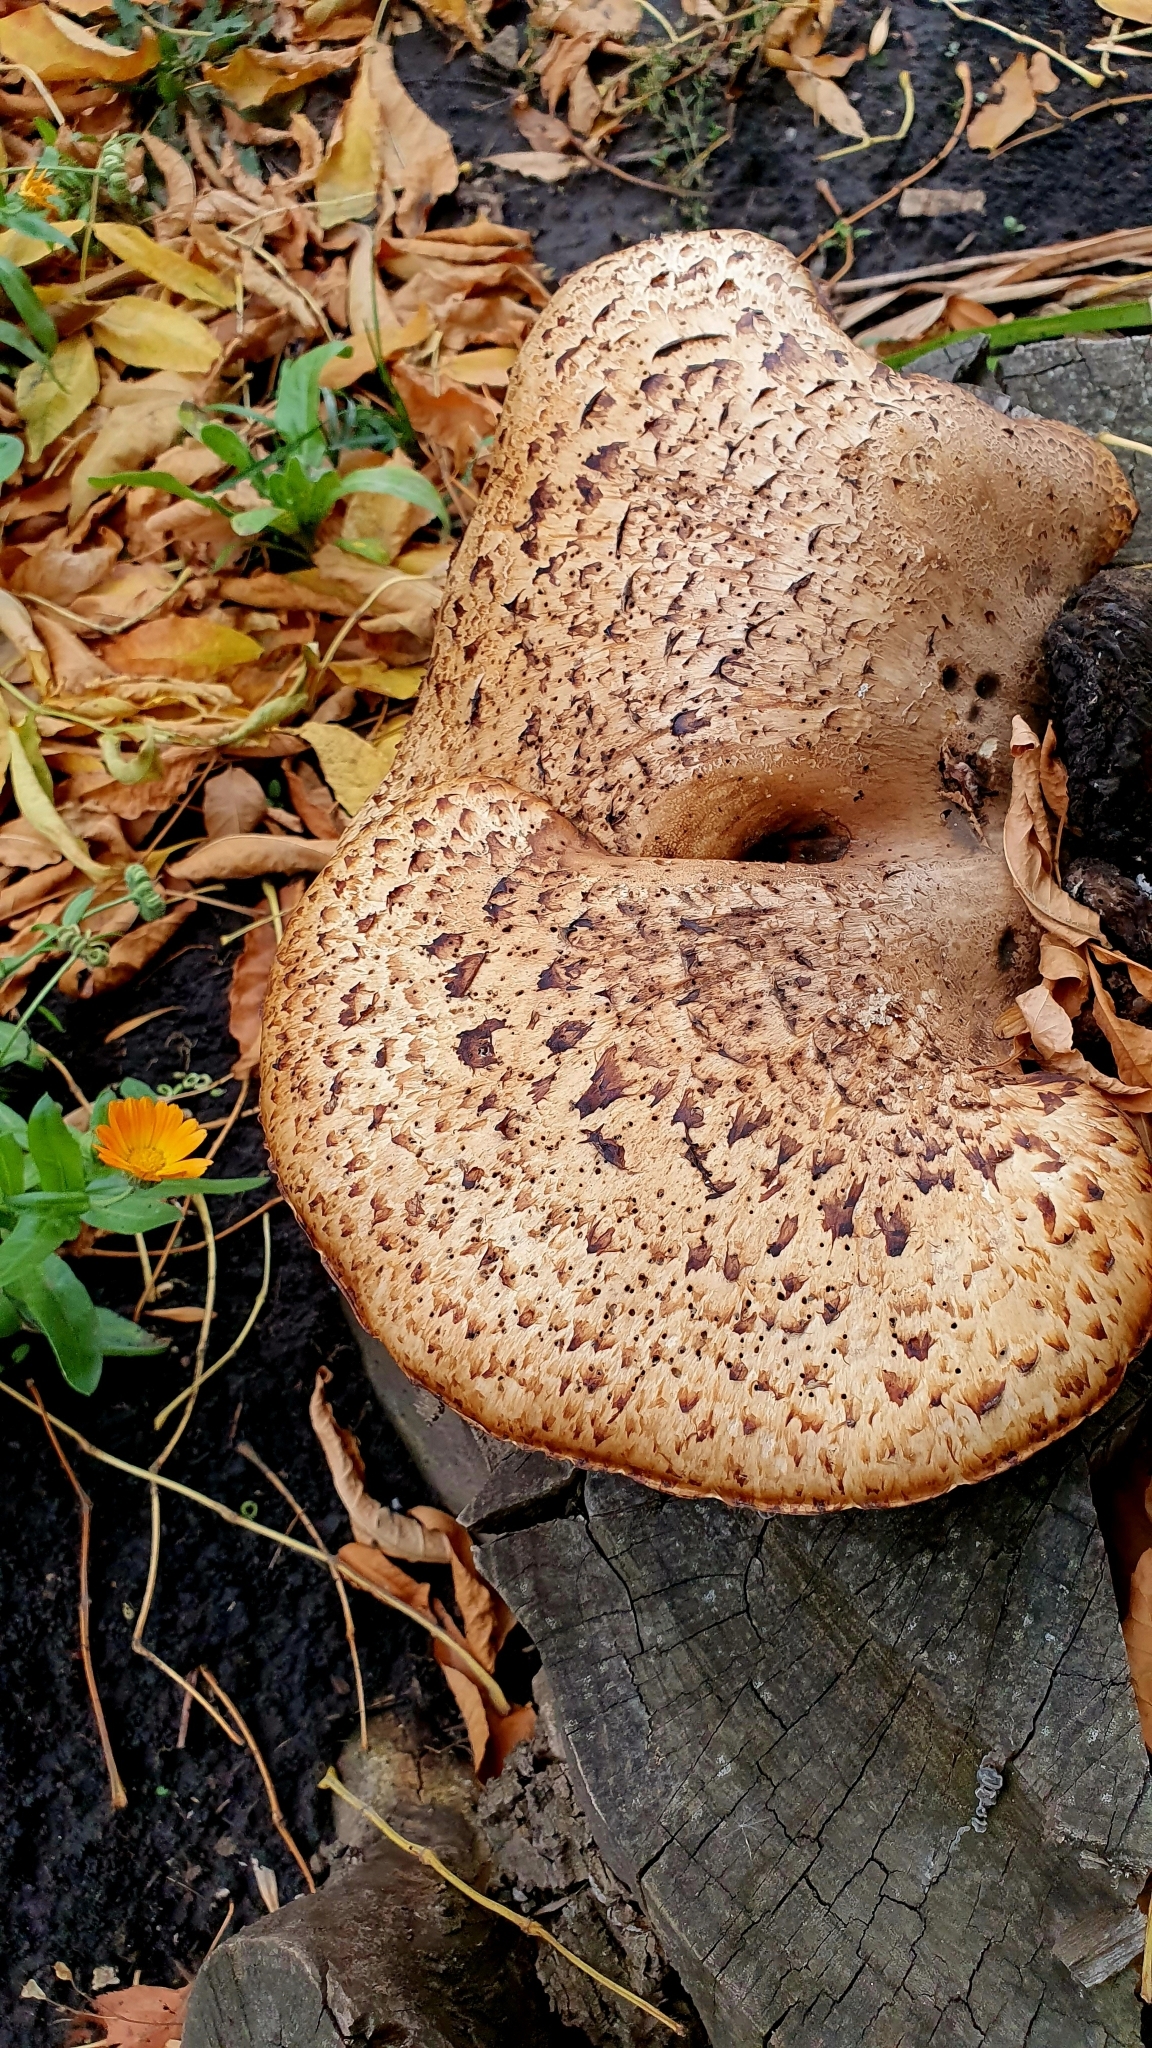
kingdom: Fungi
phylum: Basidiomycota
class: Agaricomycetes
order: Polyporales
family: Polyporaceae
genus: Cerioporus
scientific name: Cerioporus squamosus
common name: Dryad's saddle
